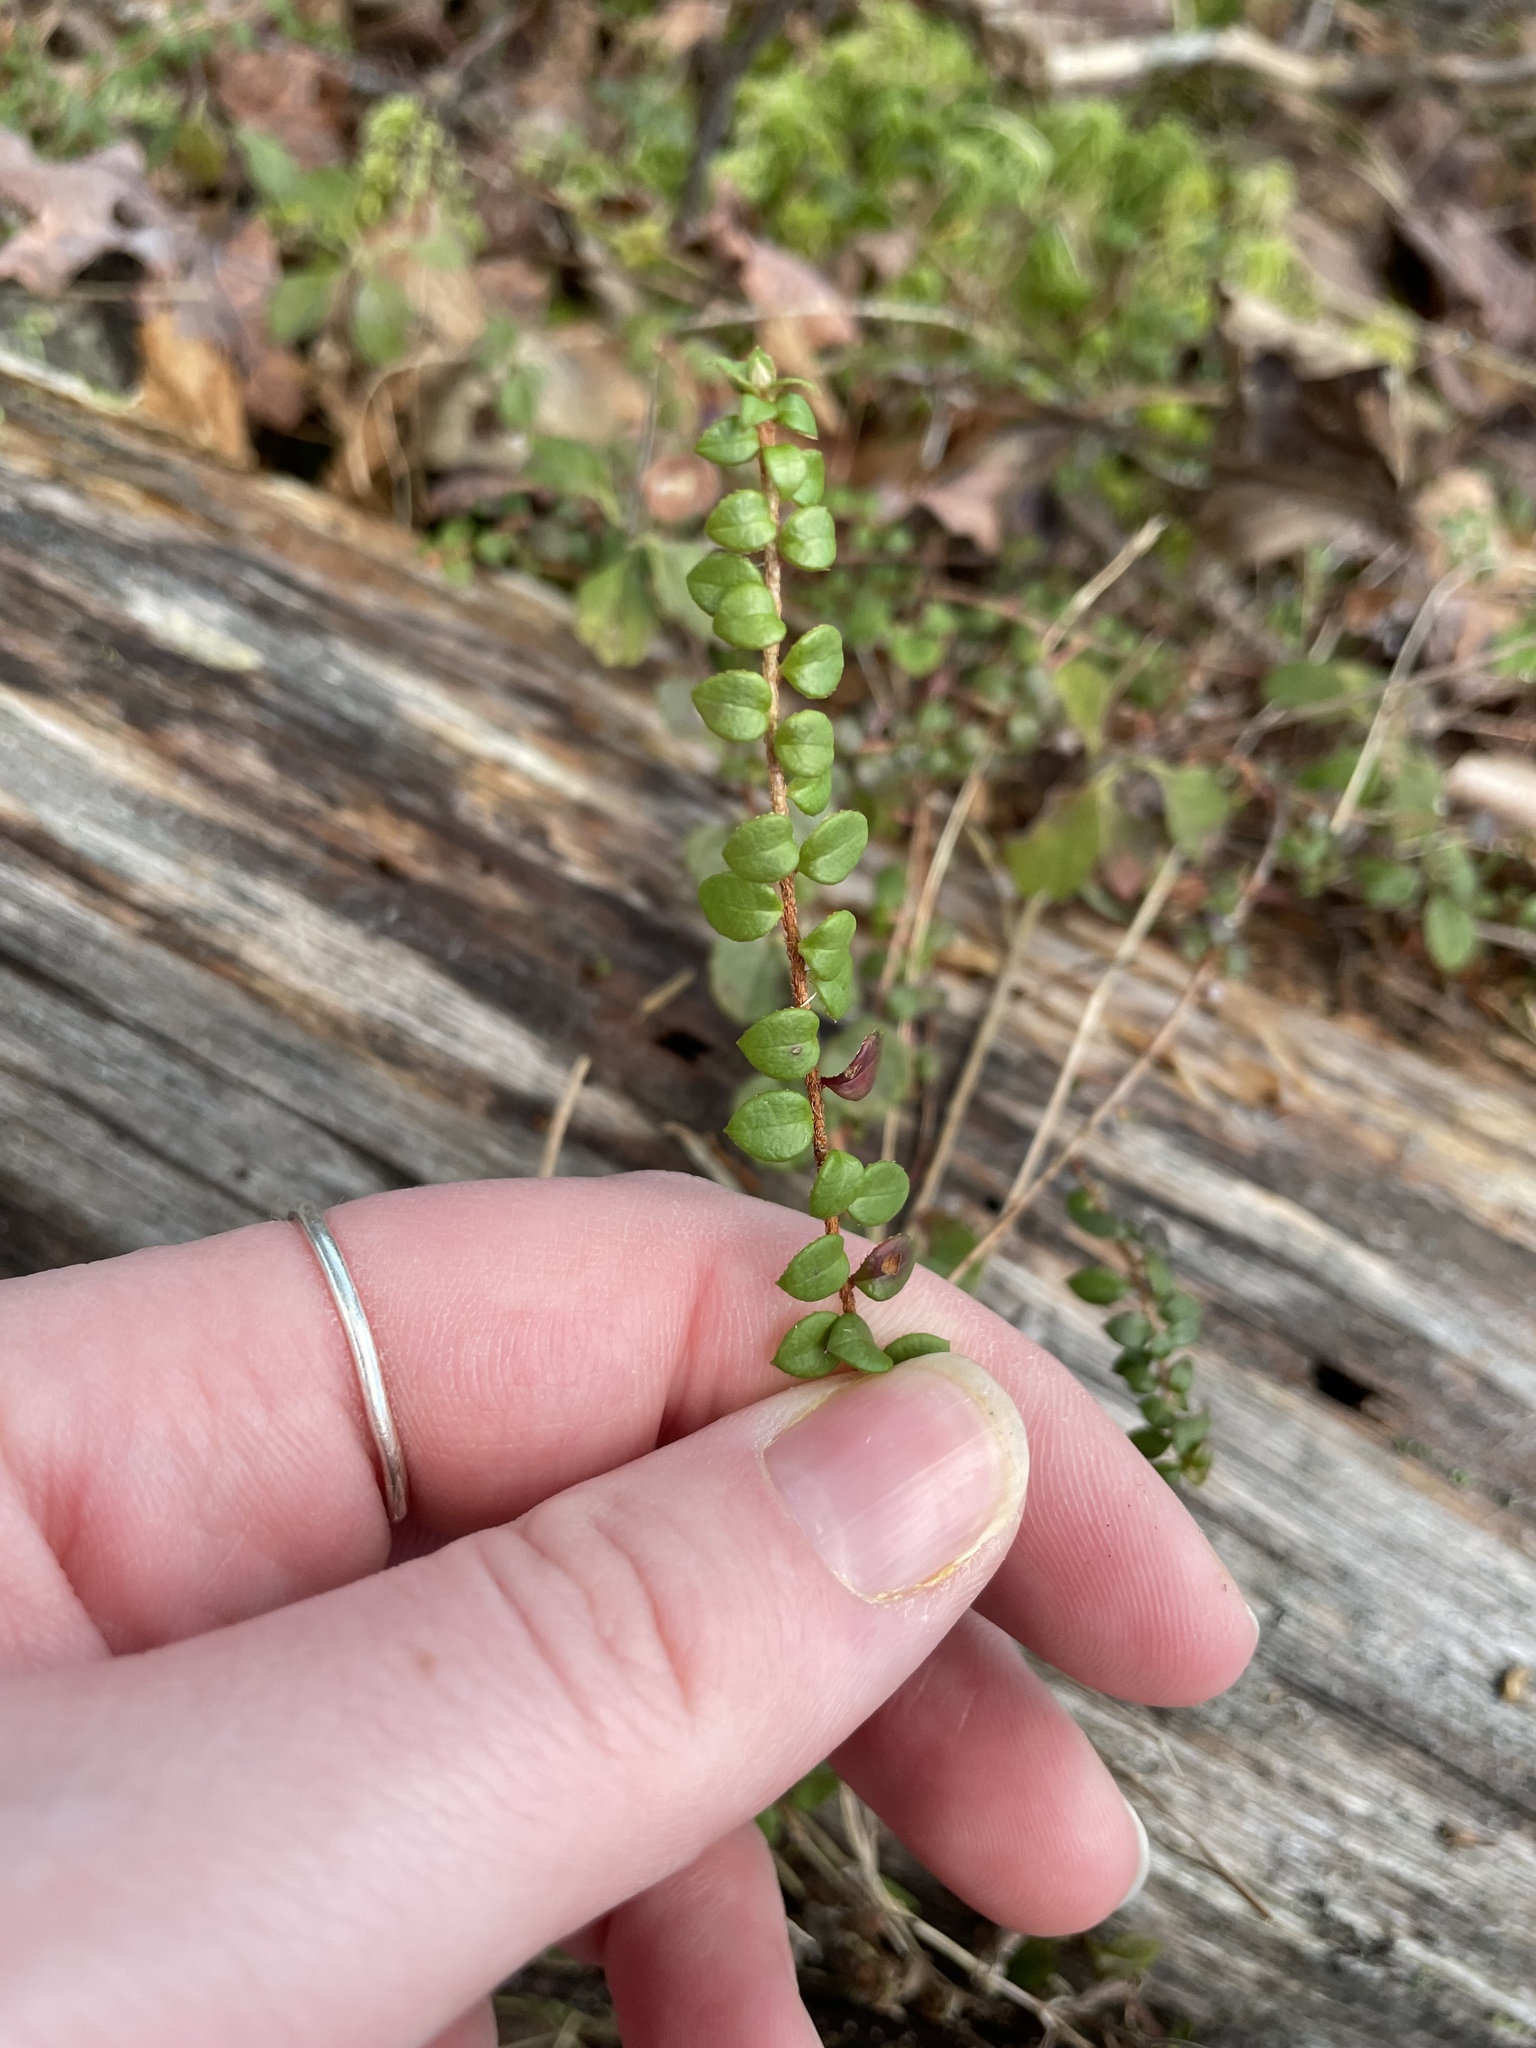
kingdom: Plantae
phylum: Tracheophyta
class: Magnoliopsida
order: Ericales
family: Ericaceae
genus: Gaultheria
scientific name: Gaultheria hispidula
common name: Cancer wintergreen
